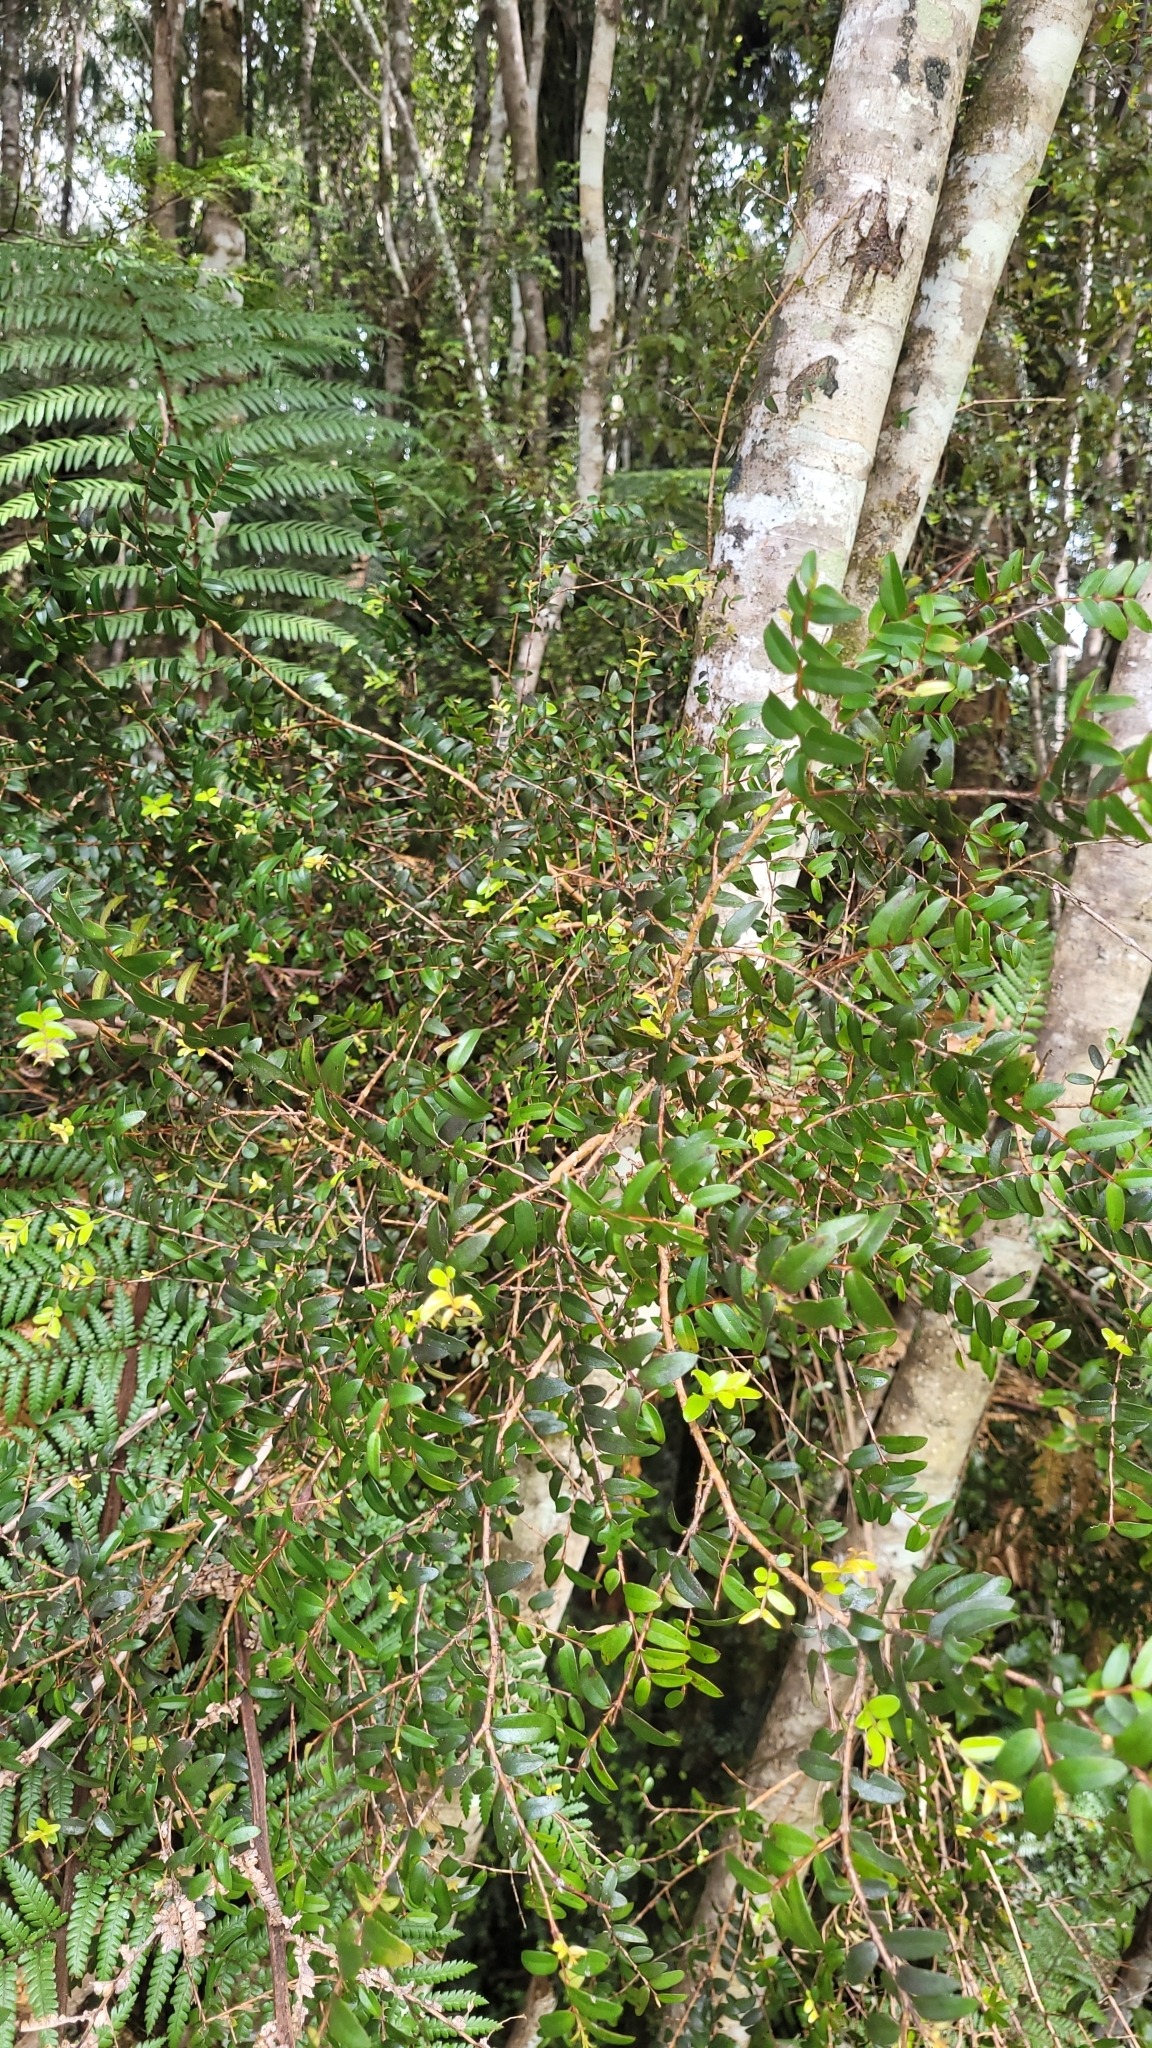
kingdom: Plantae
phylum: Tracheophyta
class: Magnoliopsida
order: Myrtales
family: Myrtaceae
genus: Metrosideros
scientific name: Metrosideros diffusa
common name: Small ratavine
